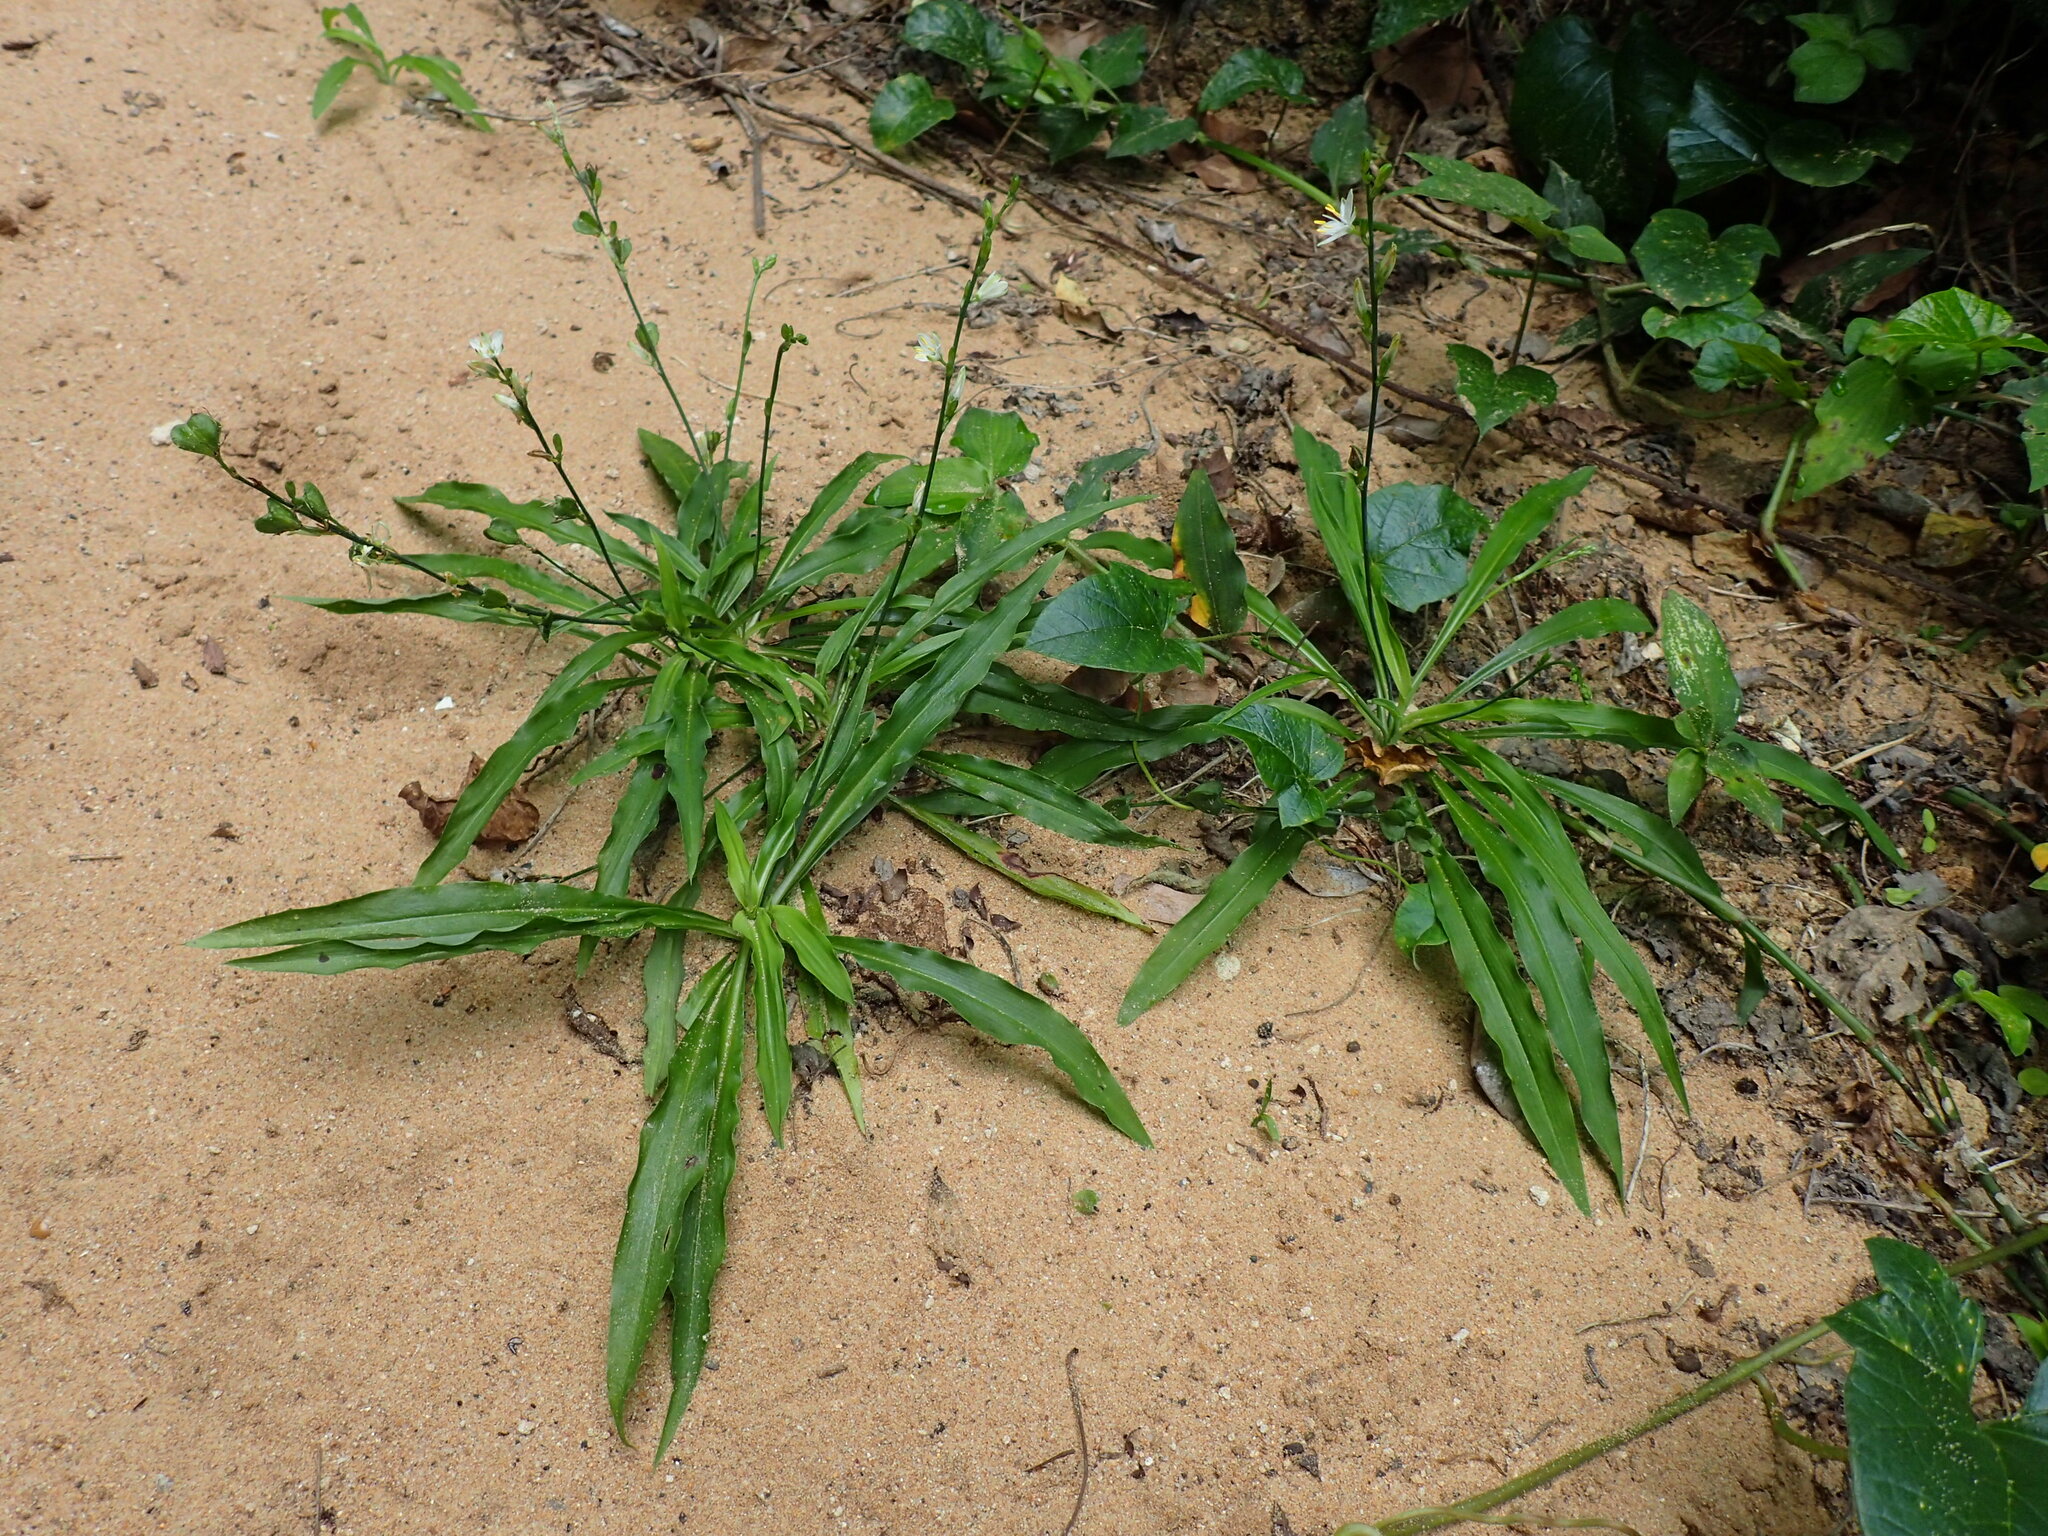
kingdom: Plantae
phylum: Tracheophyta
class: Liliopsida
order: Asparagales
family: Asparagaceae
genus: Chlorophytum
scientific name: Chlorophytum modestum
